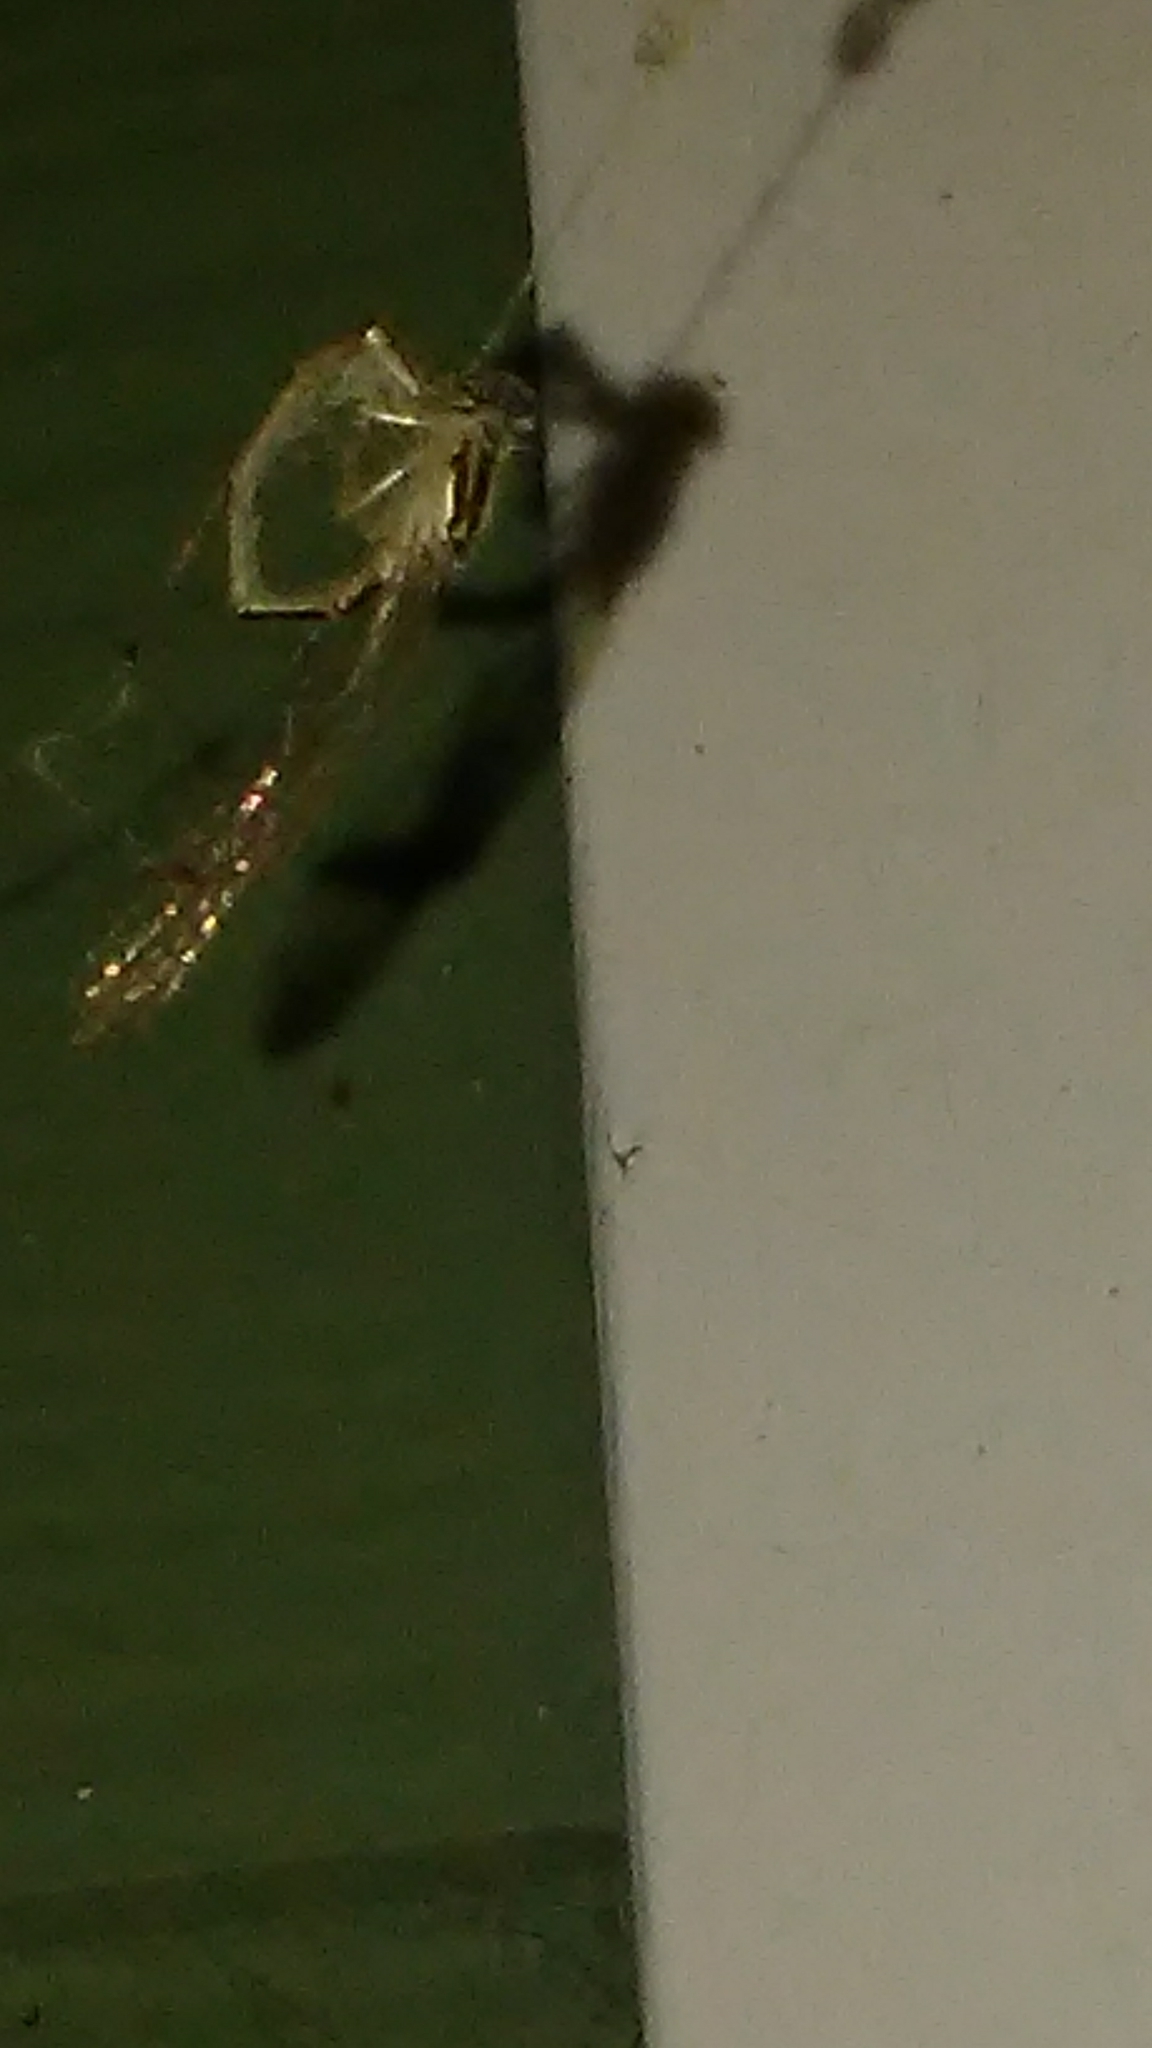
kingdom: Animalia
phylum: Arthropoda
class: Insecta
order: Odonata
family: Coenagrionidae
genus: Ischnura
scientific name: Ischnura posita
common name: Fragile forktail
